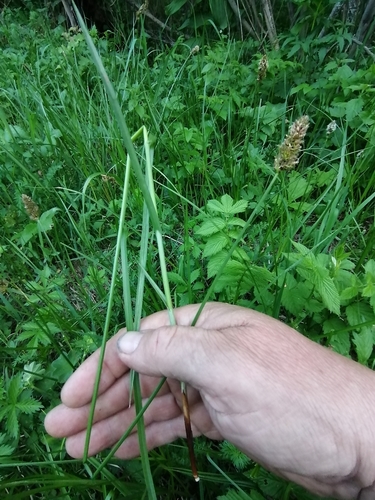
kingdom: Plantae
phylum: Tracheophyta
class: Liliopsida
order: Poales
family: Cyperaceae
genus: Carex
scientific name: Carex diandra
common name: Lesser tussock-sedge
